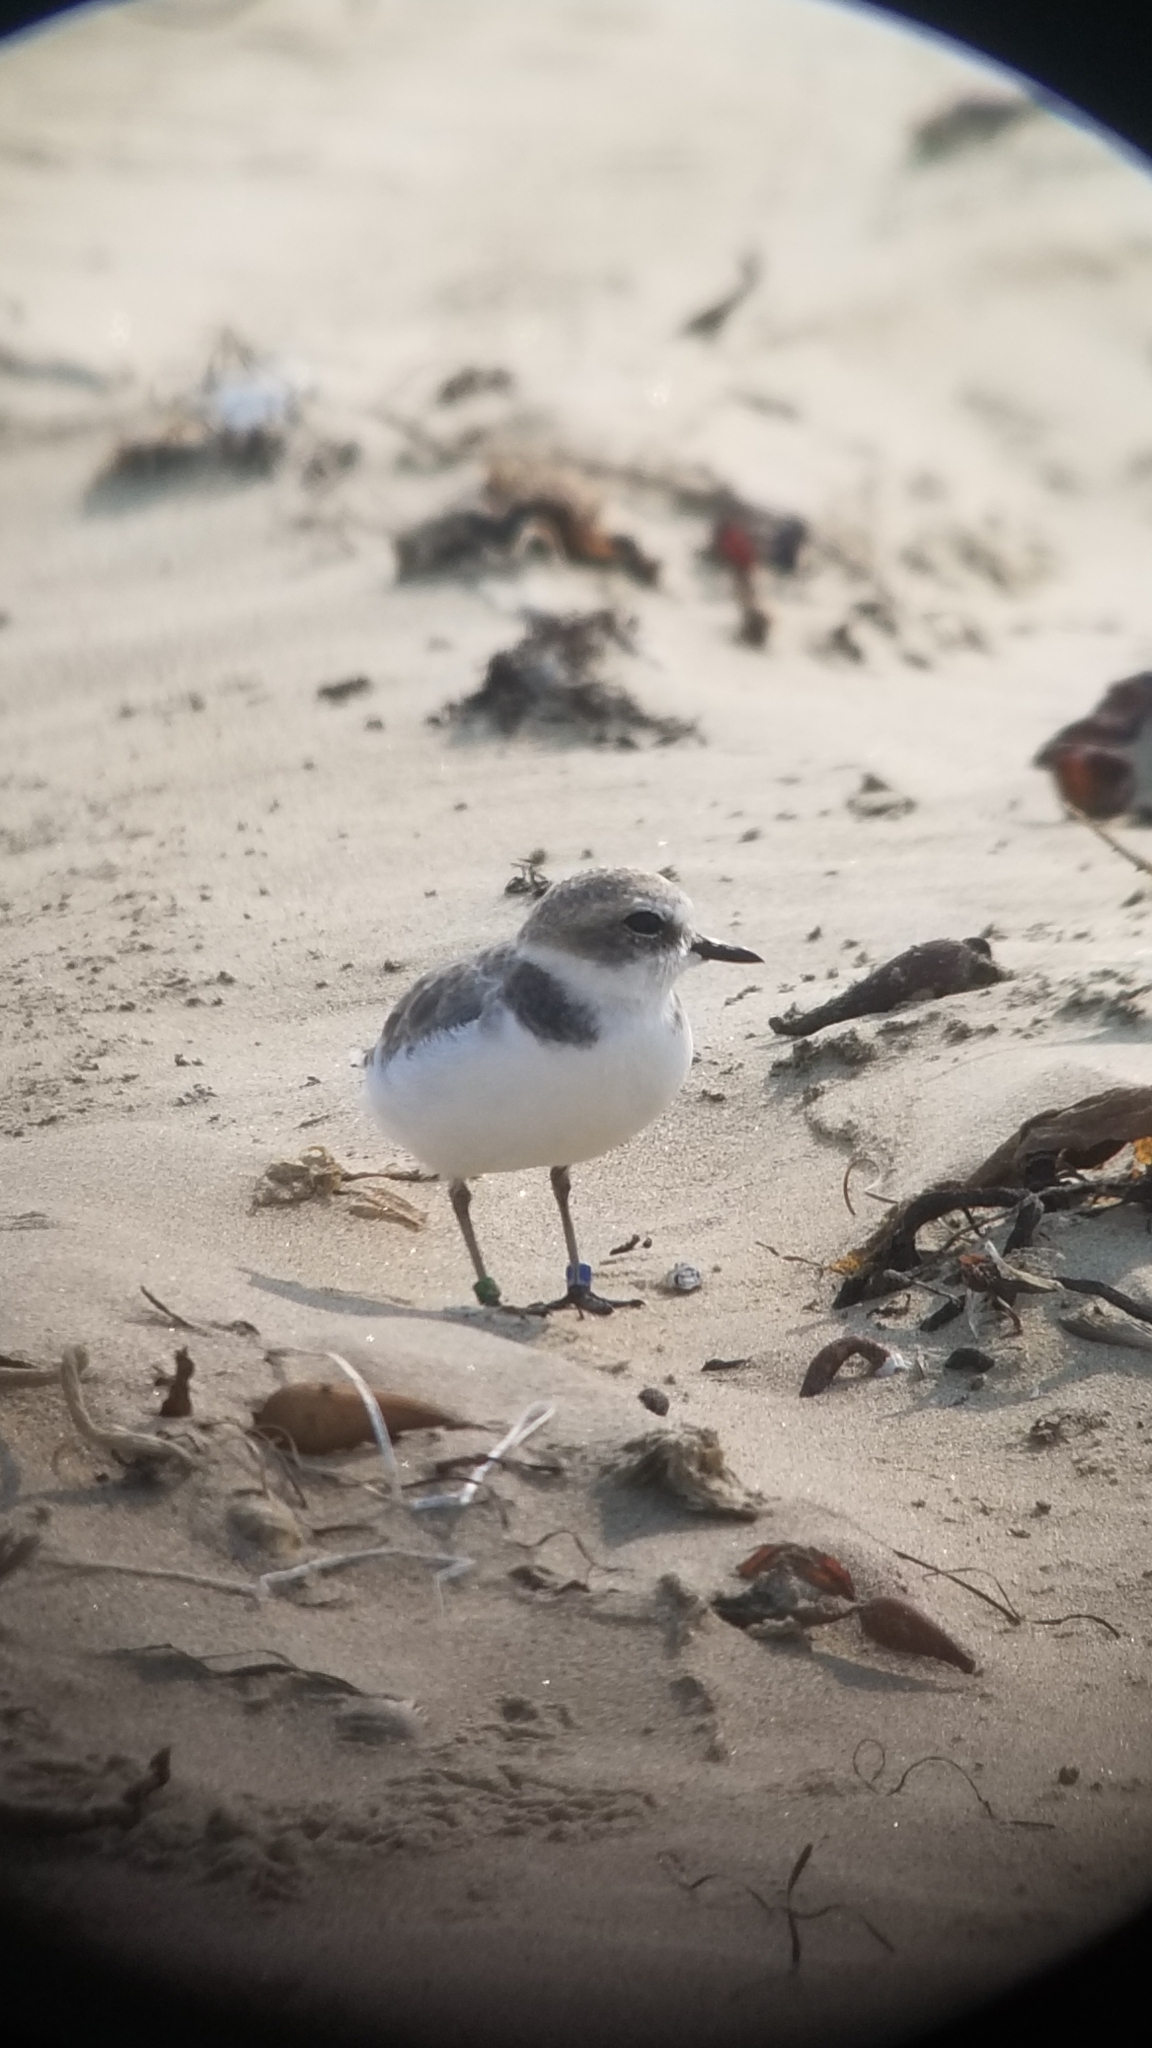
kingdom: Animalia
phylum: Chordata
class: Aves
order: Charadriiformes
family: Charadriidae
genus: Anarhynchus
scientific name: Anarhynchus
